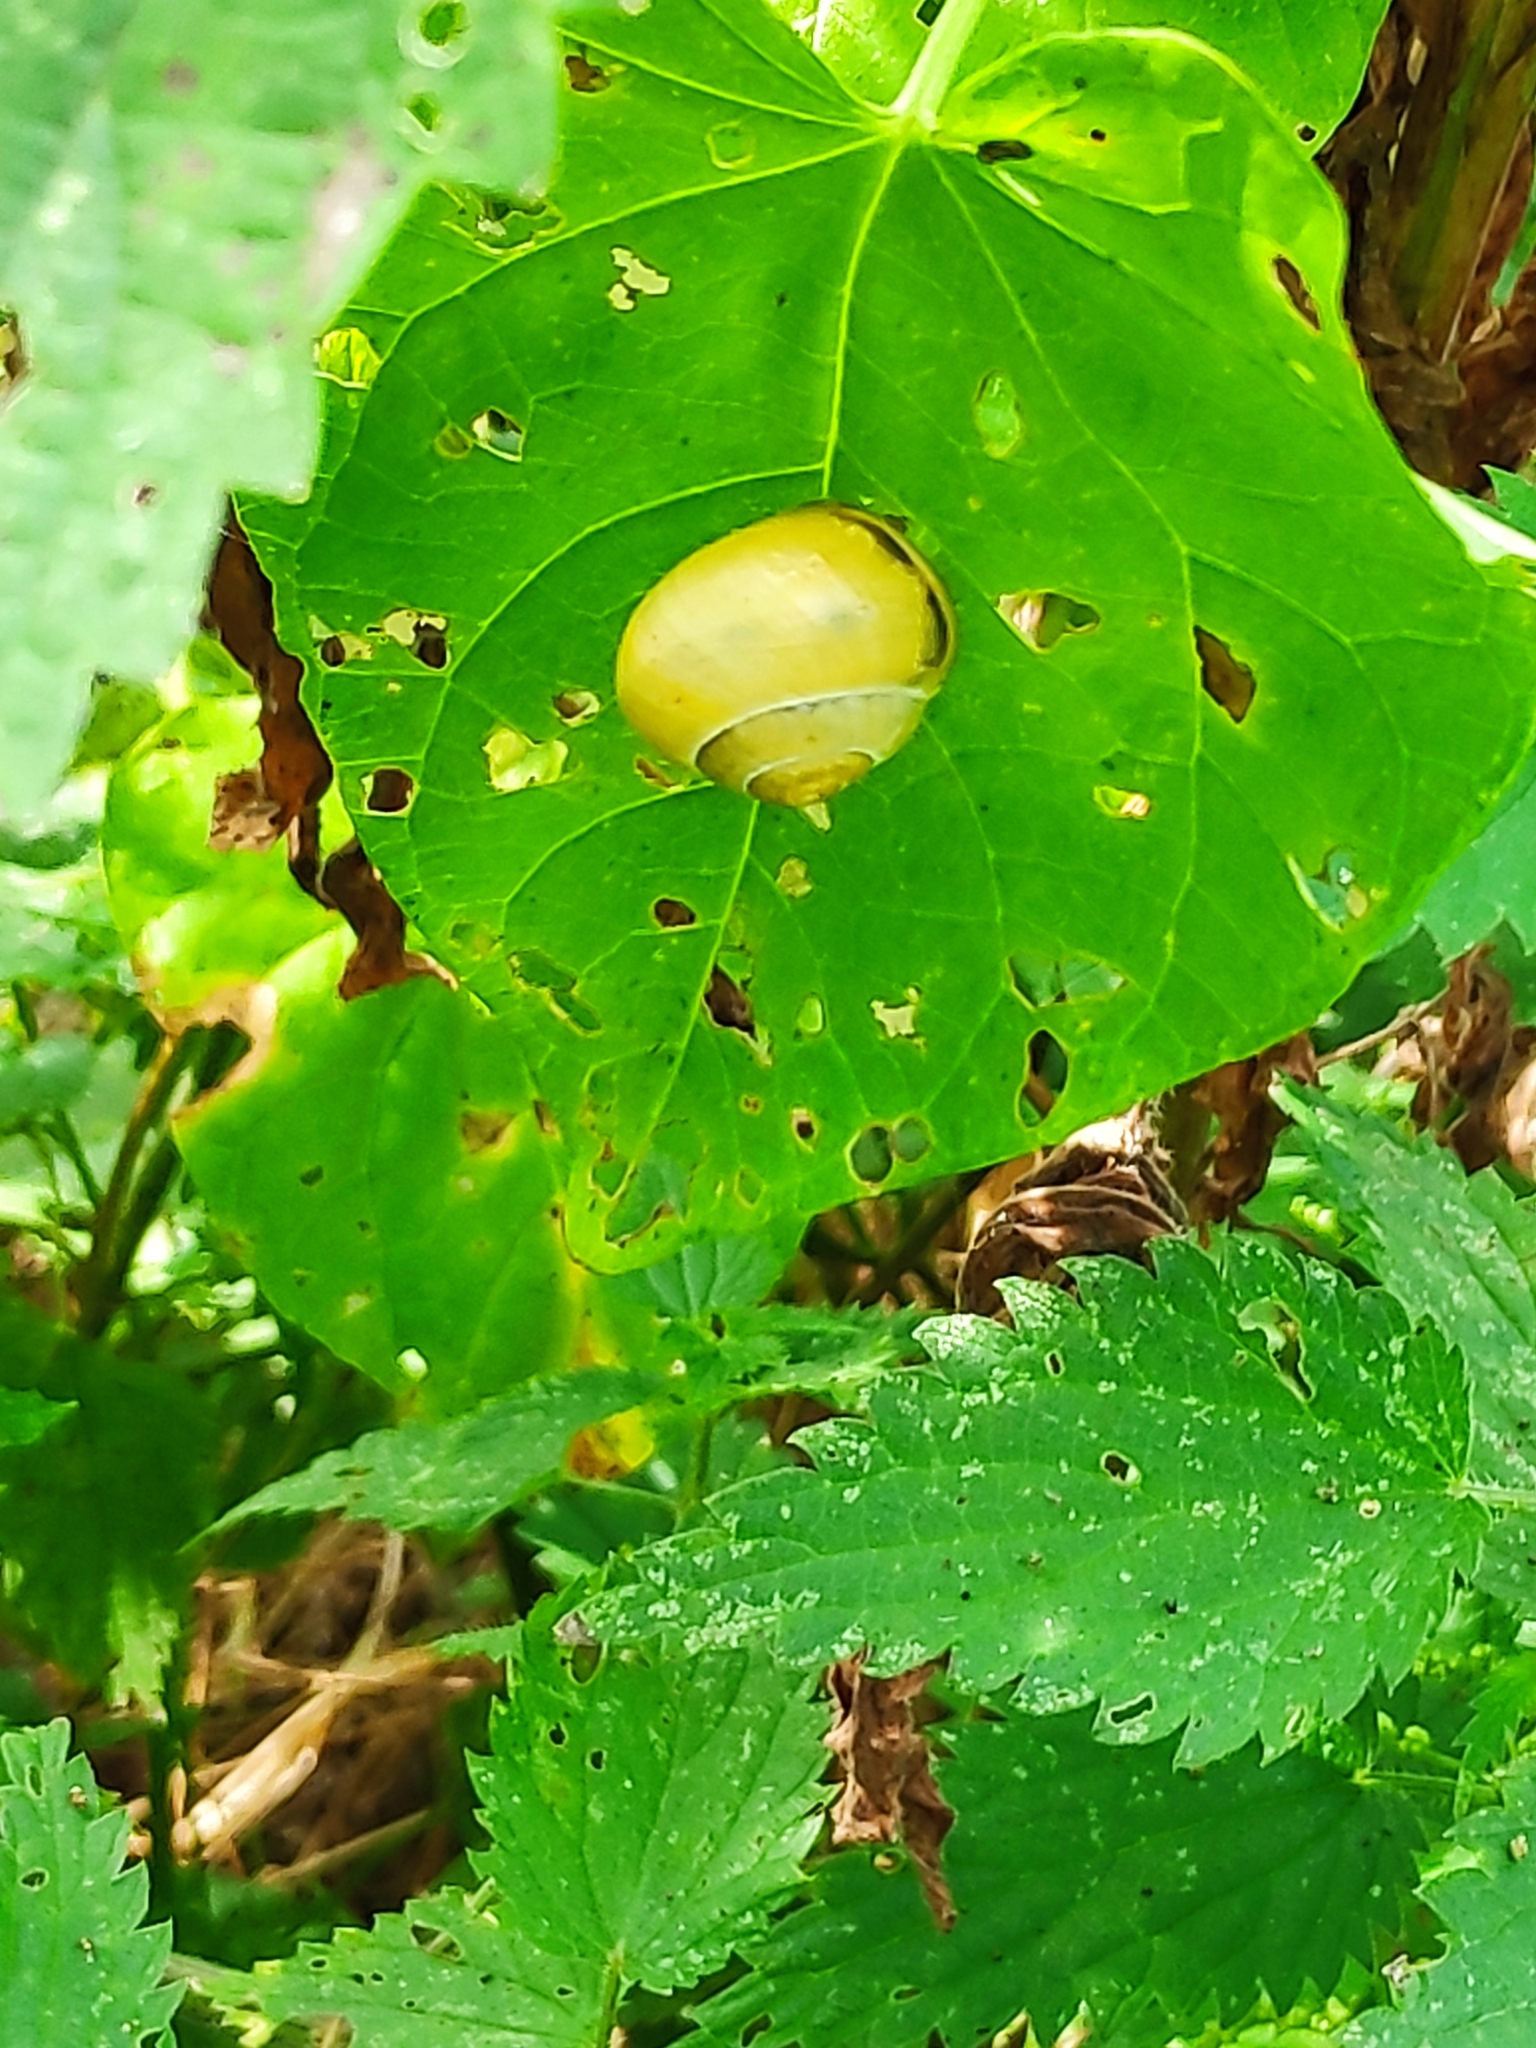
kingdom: Animalia
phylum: Mollusca
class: Gastropoda
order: Stylommatophora
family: Helicidae
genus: Cepaea
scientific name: Cepaea
